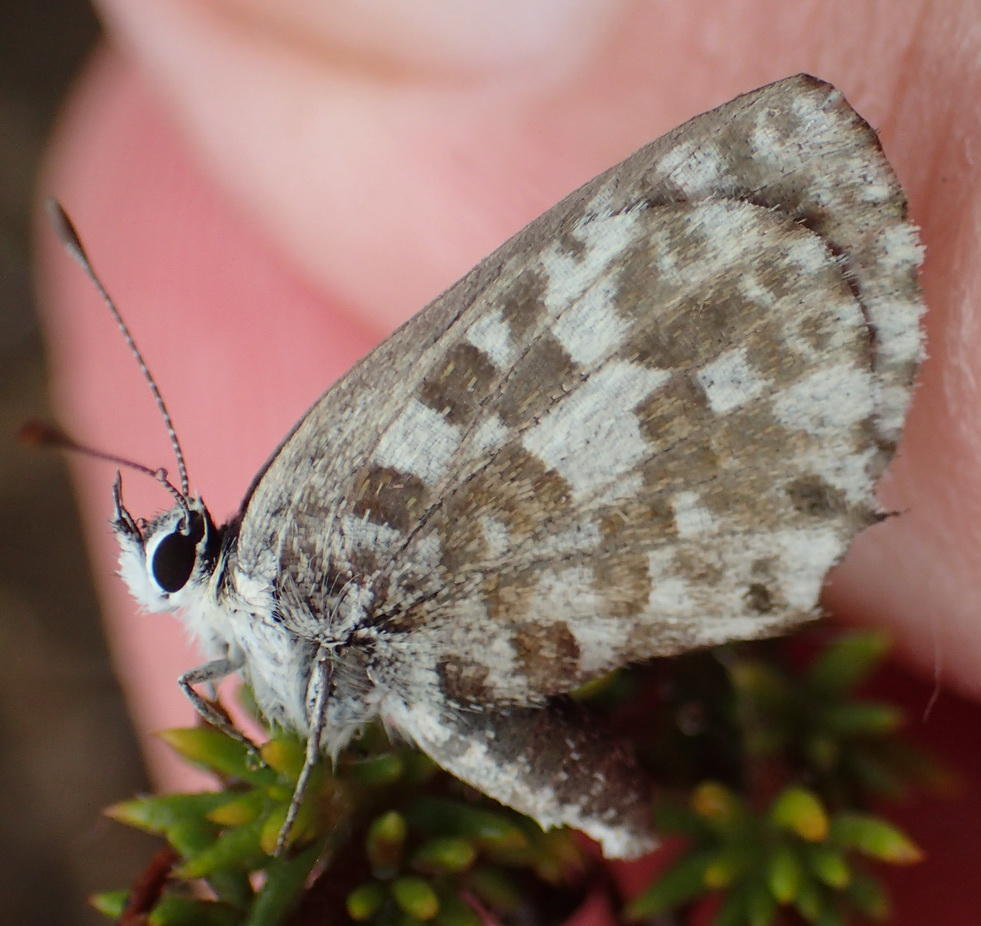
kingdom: Animalia
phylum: Arthropoda
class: Insecta
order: Lepidoptera
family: Lycaenidae
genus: Tarucus
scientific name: Tarucus thespis
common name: Vivid dotted blue
